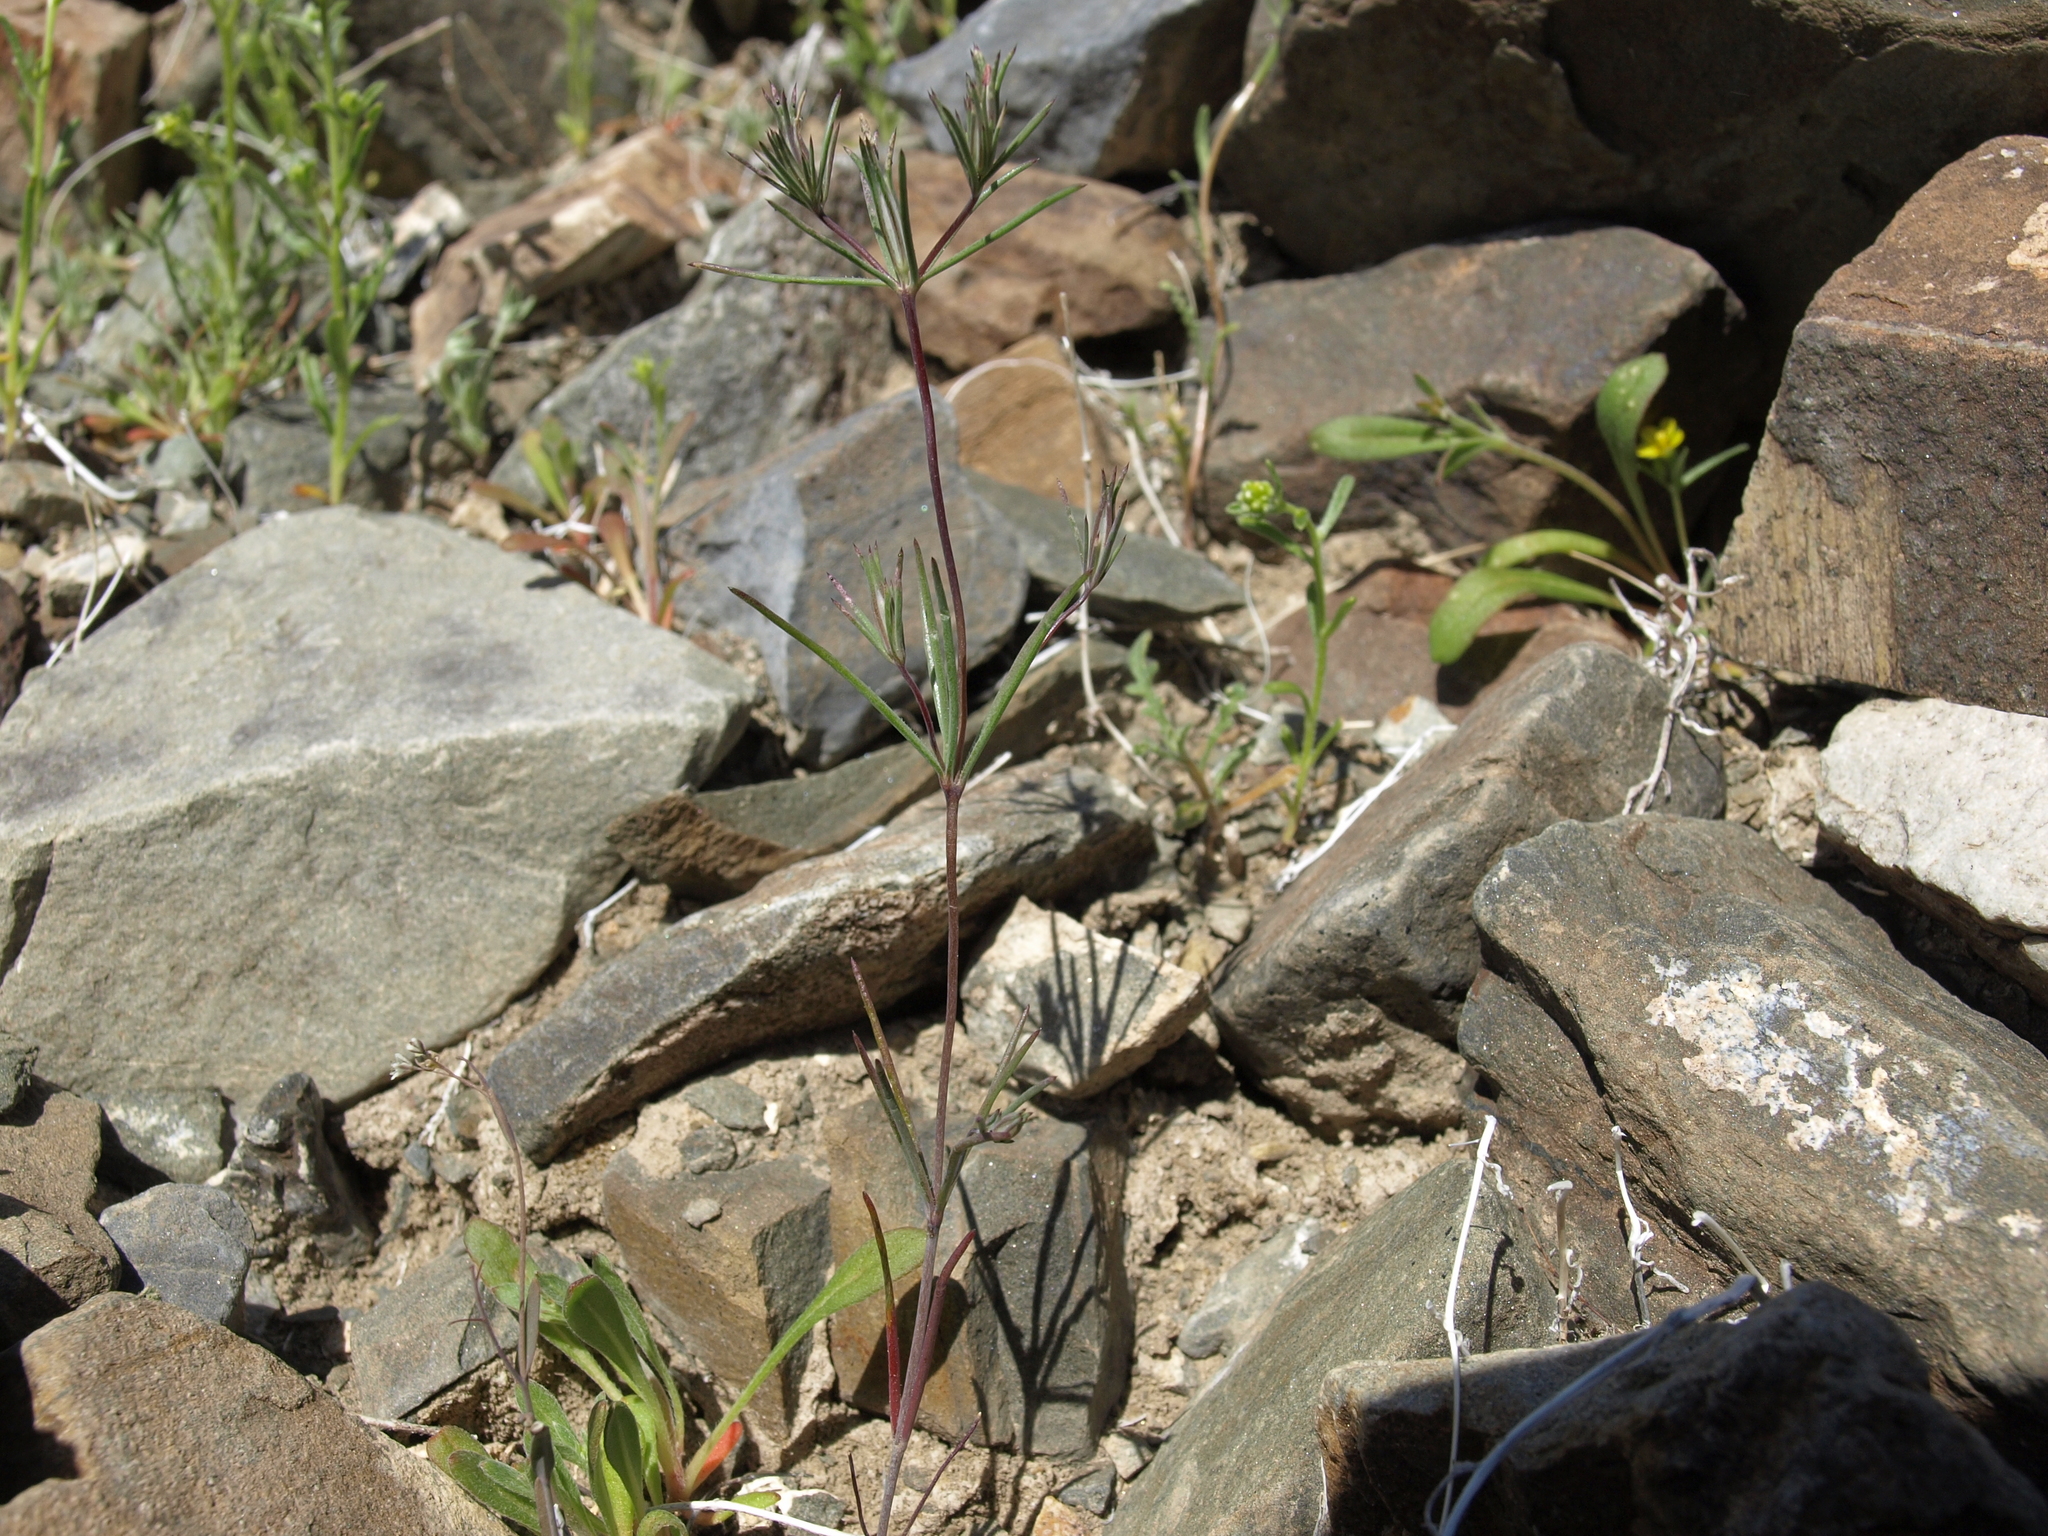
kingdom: Plantae
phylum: Tracheophyta
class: Magnoliopsida
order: Ericales
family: Polemoniaceae
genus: Linanthus
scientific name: Linanthus bigelovii
